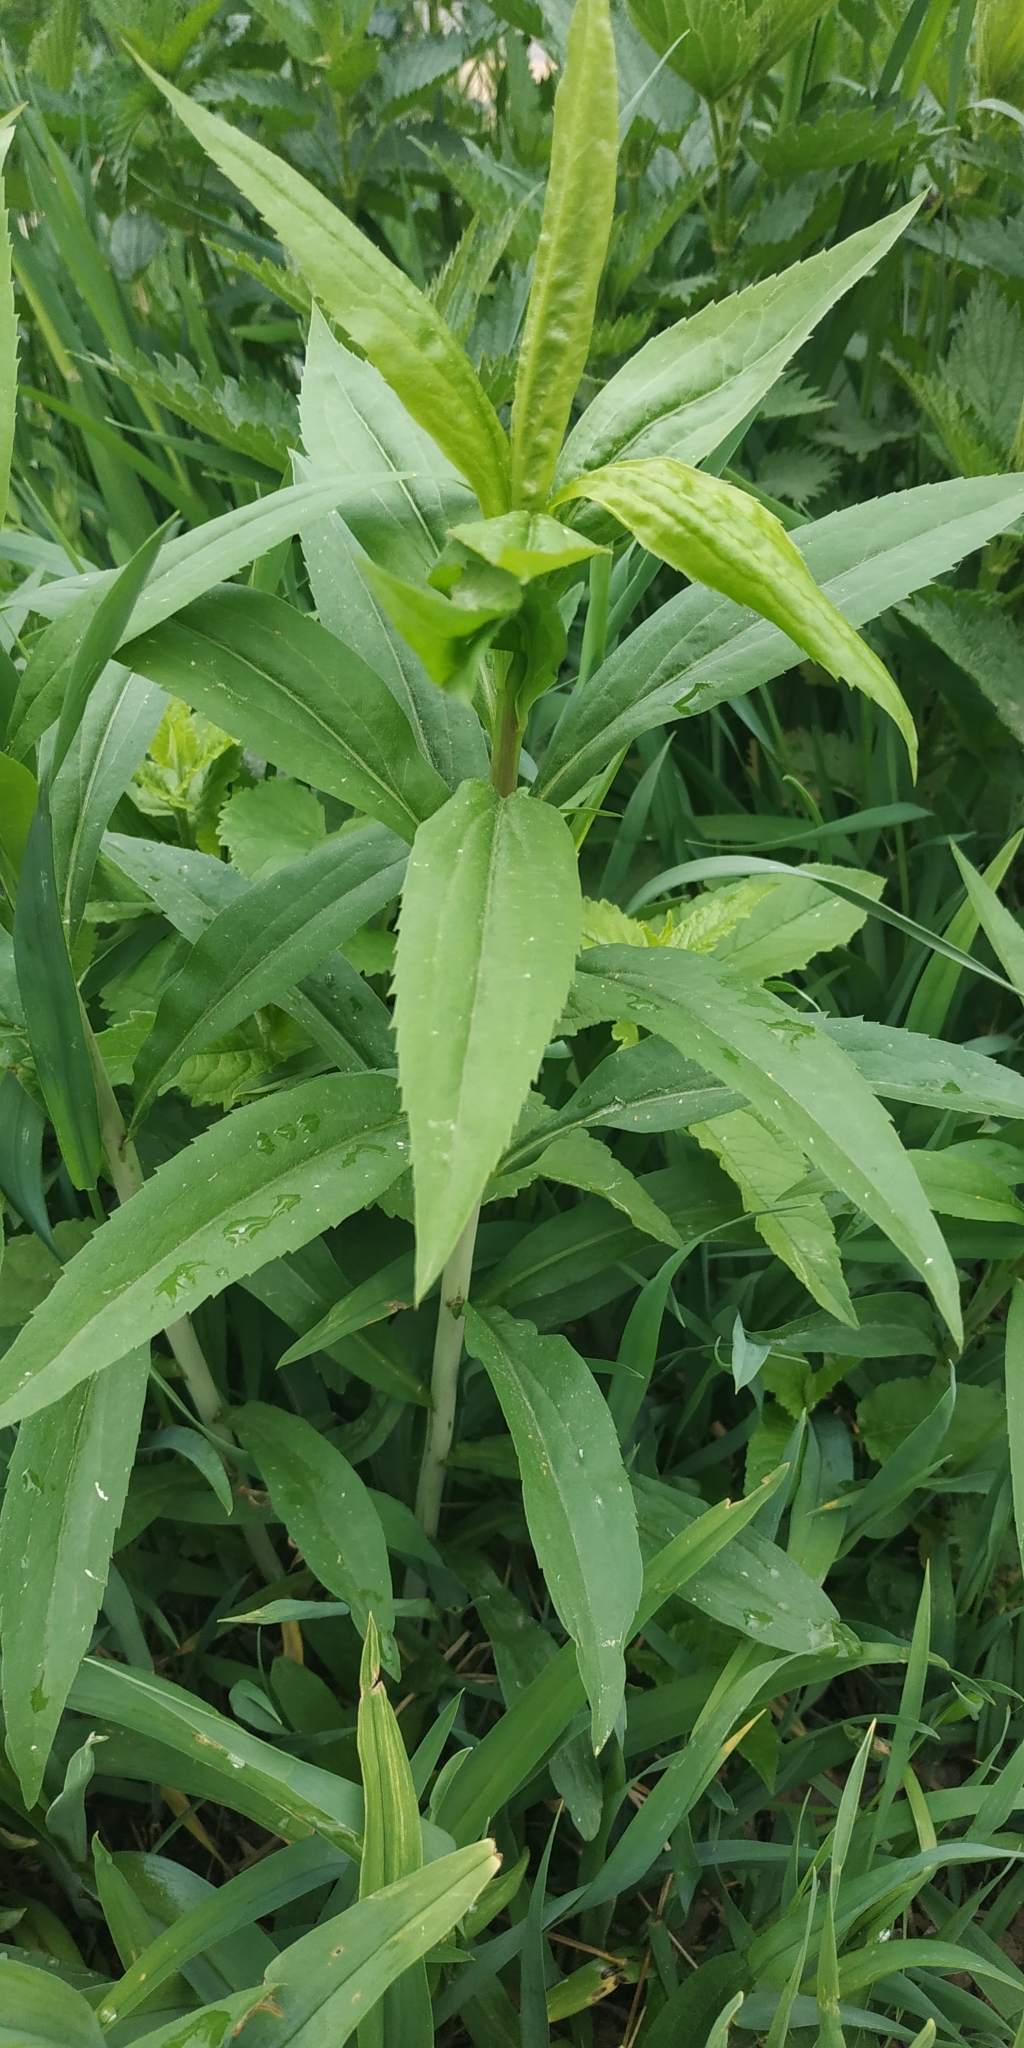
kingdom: Plantae
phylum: Tracheophyta
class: Magnoliopsida
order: Asterales
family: Asteraceae
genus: Solidago
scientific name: Solidago gigantea
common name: Giant goldenrod
